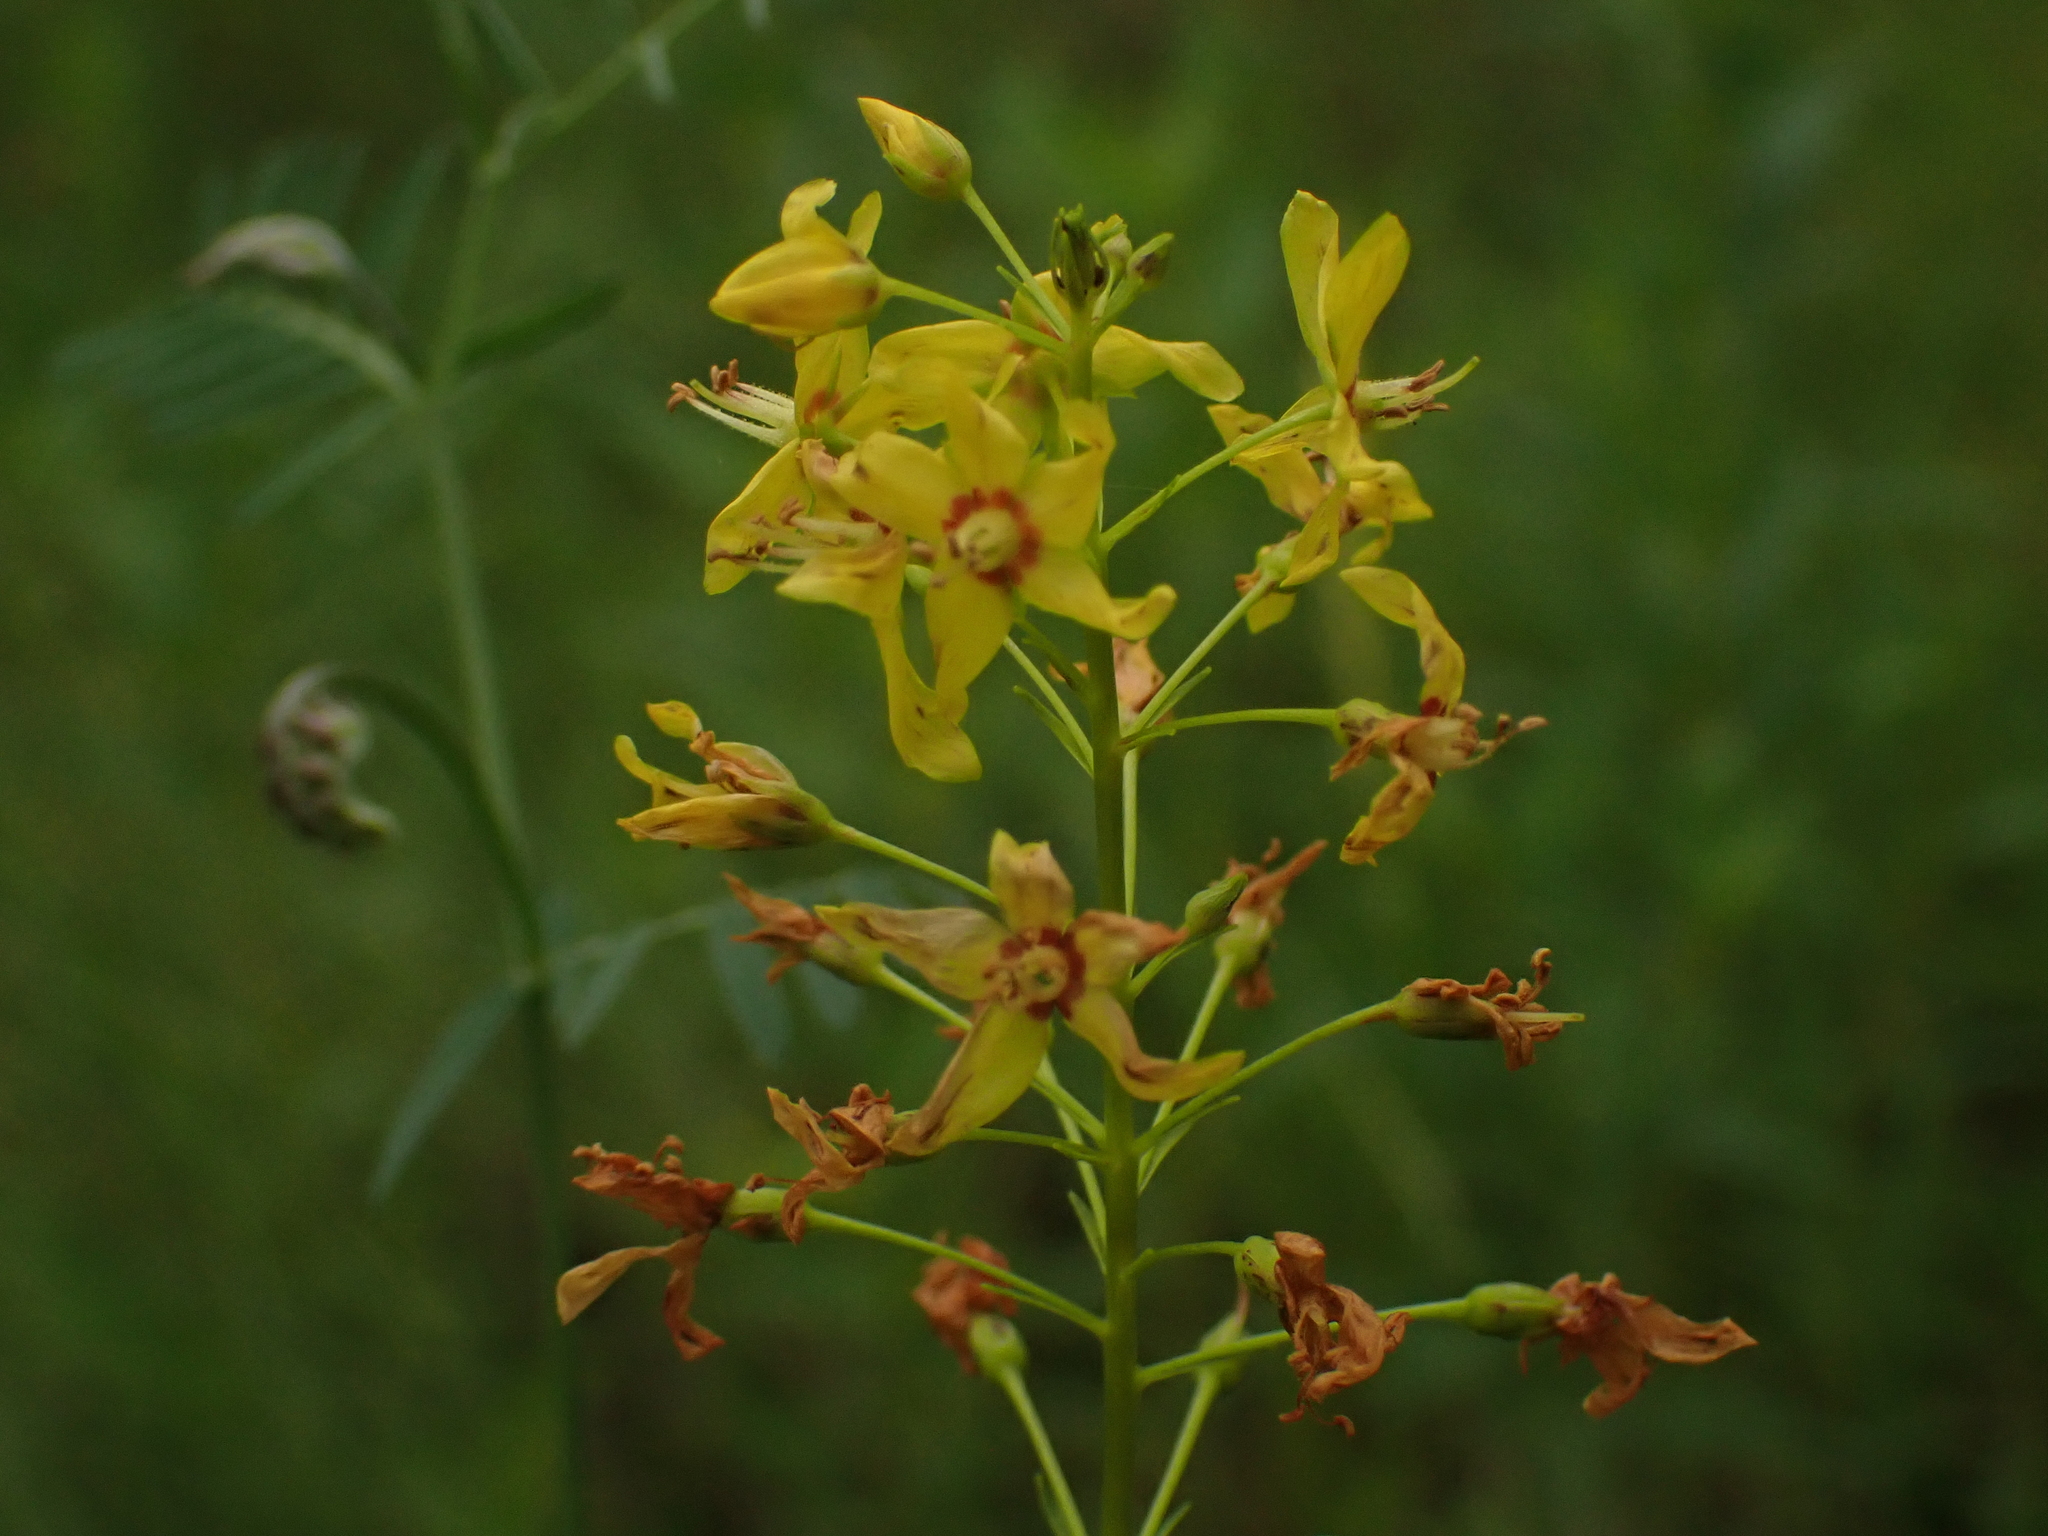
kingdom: Plantae
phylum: Tracheophyta
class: Magnoliopsida
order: Ericales
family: Primulaceae
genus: Lysimachia
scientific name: Lysimachia terrestris
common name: Lake loosestrife
